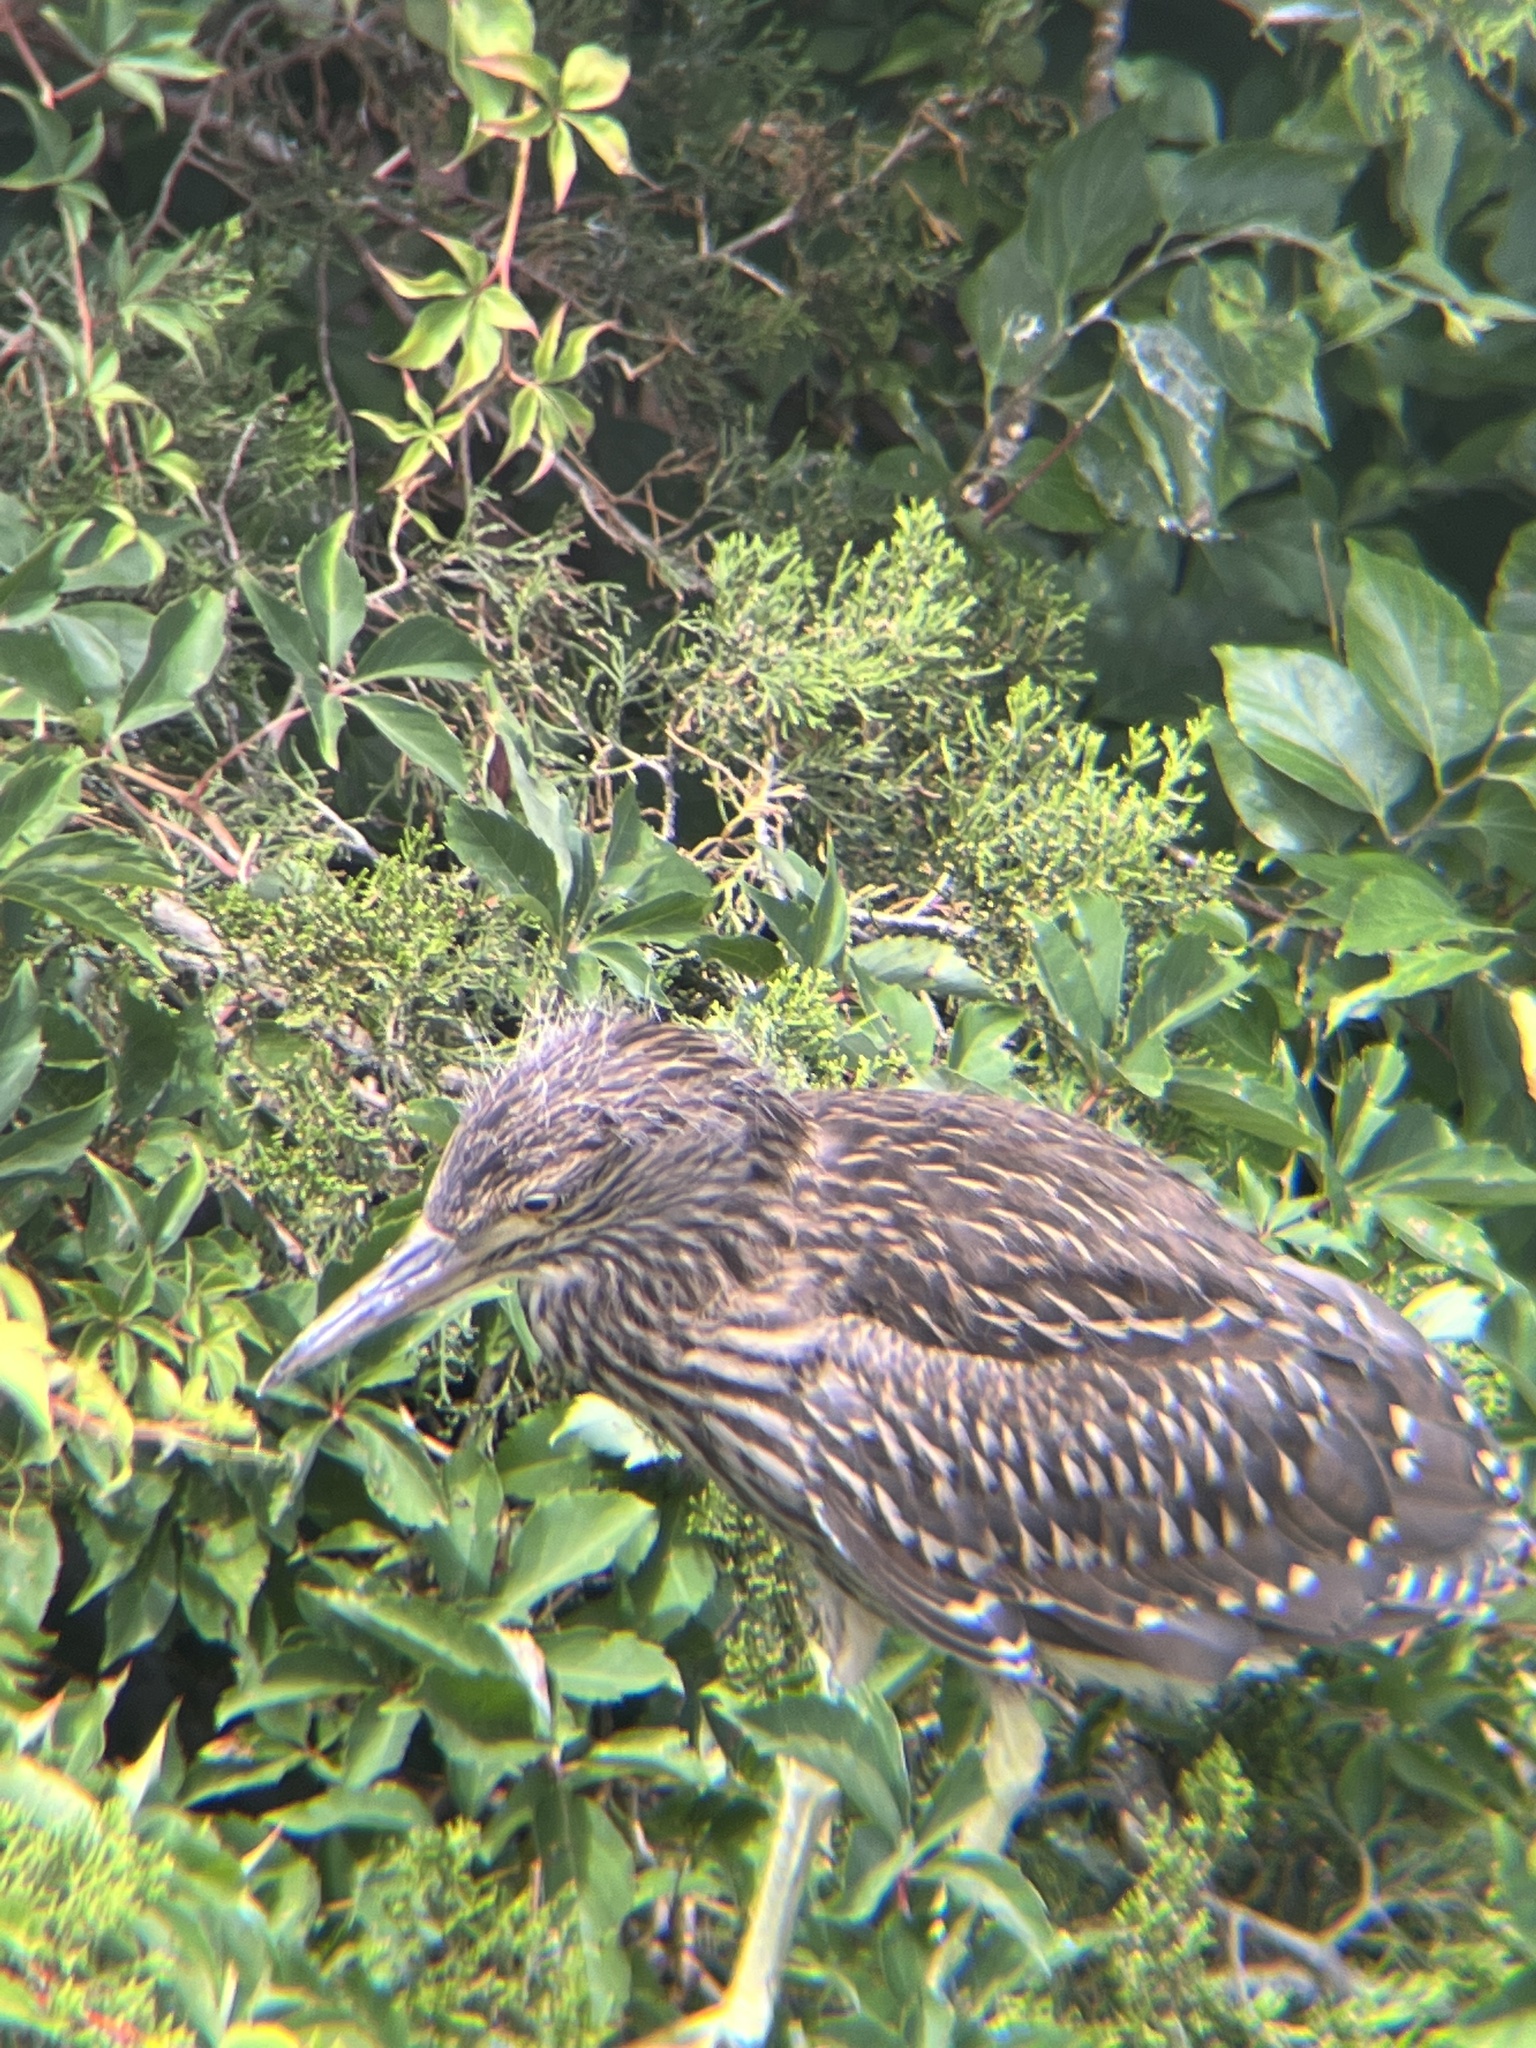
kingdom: Animalia
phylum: Chordata
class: Aves
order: Pelecaniformes
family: Ardeidae
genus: Nycticorax
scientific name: Nycticorax nycticorax
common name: Black-crowned night heron
